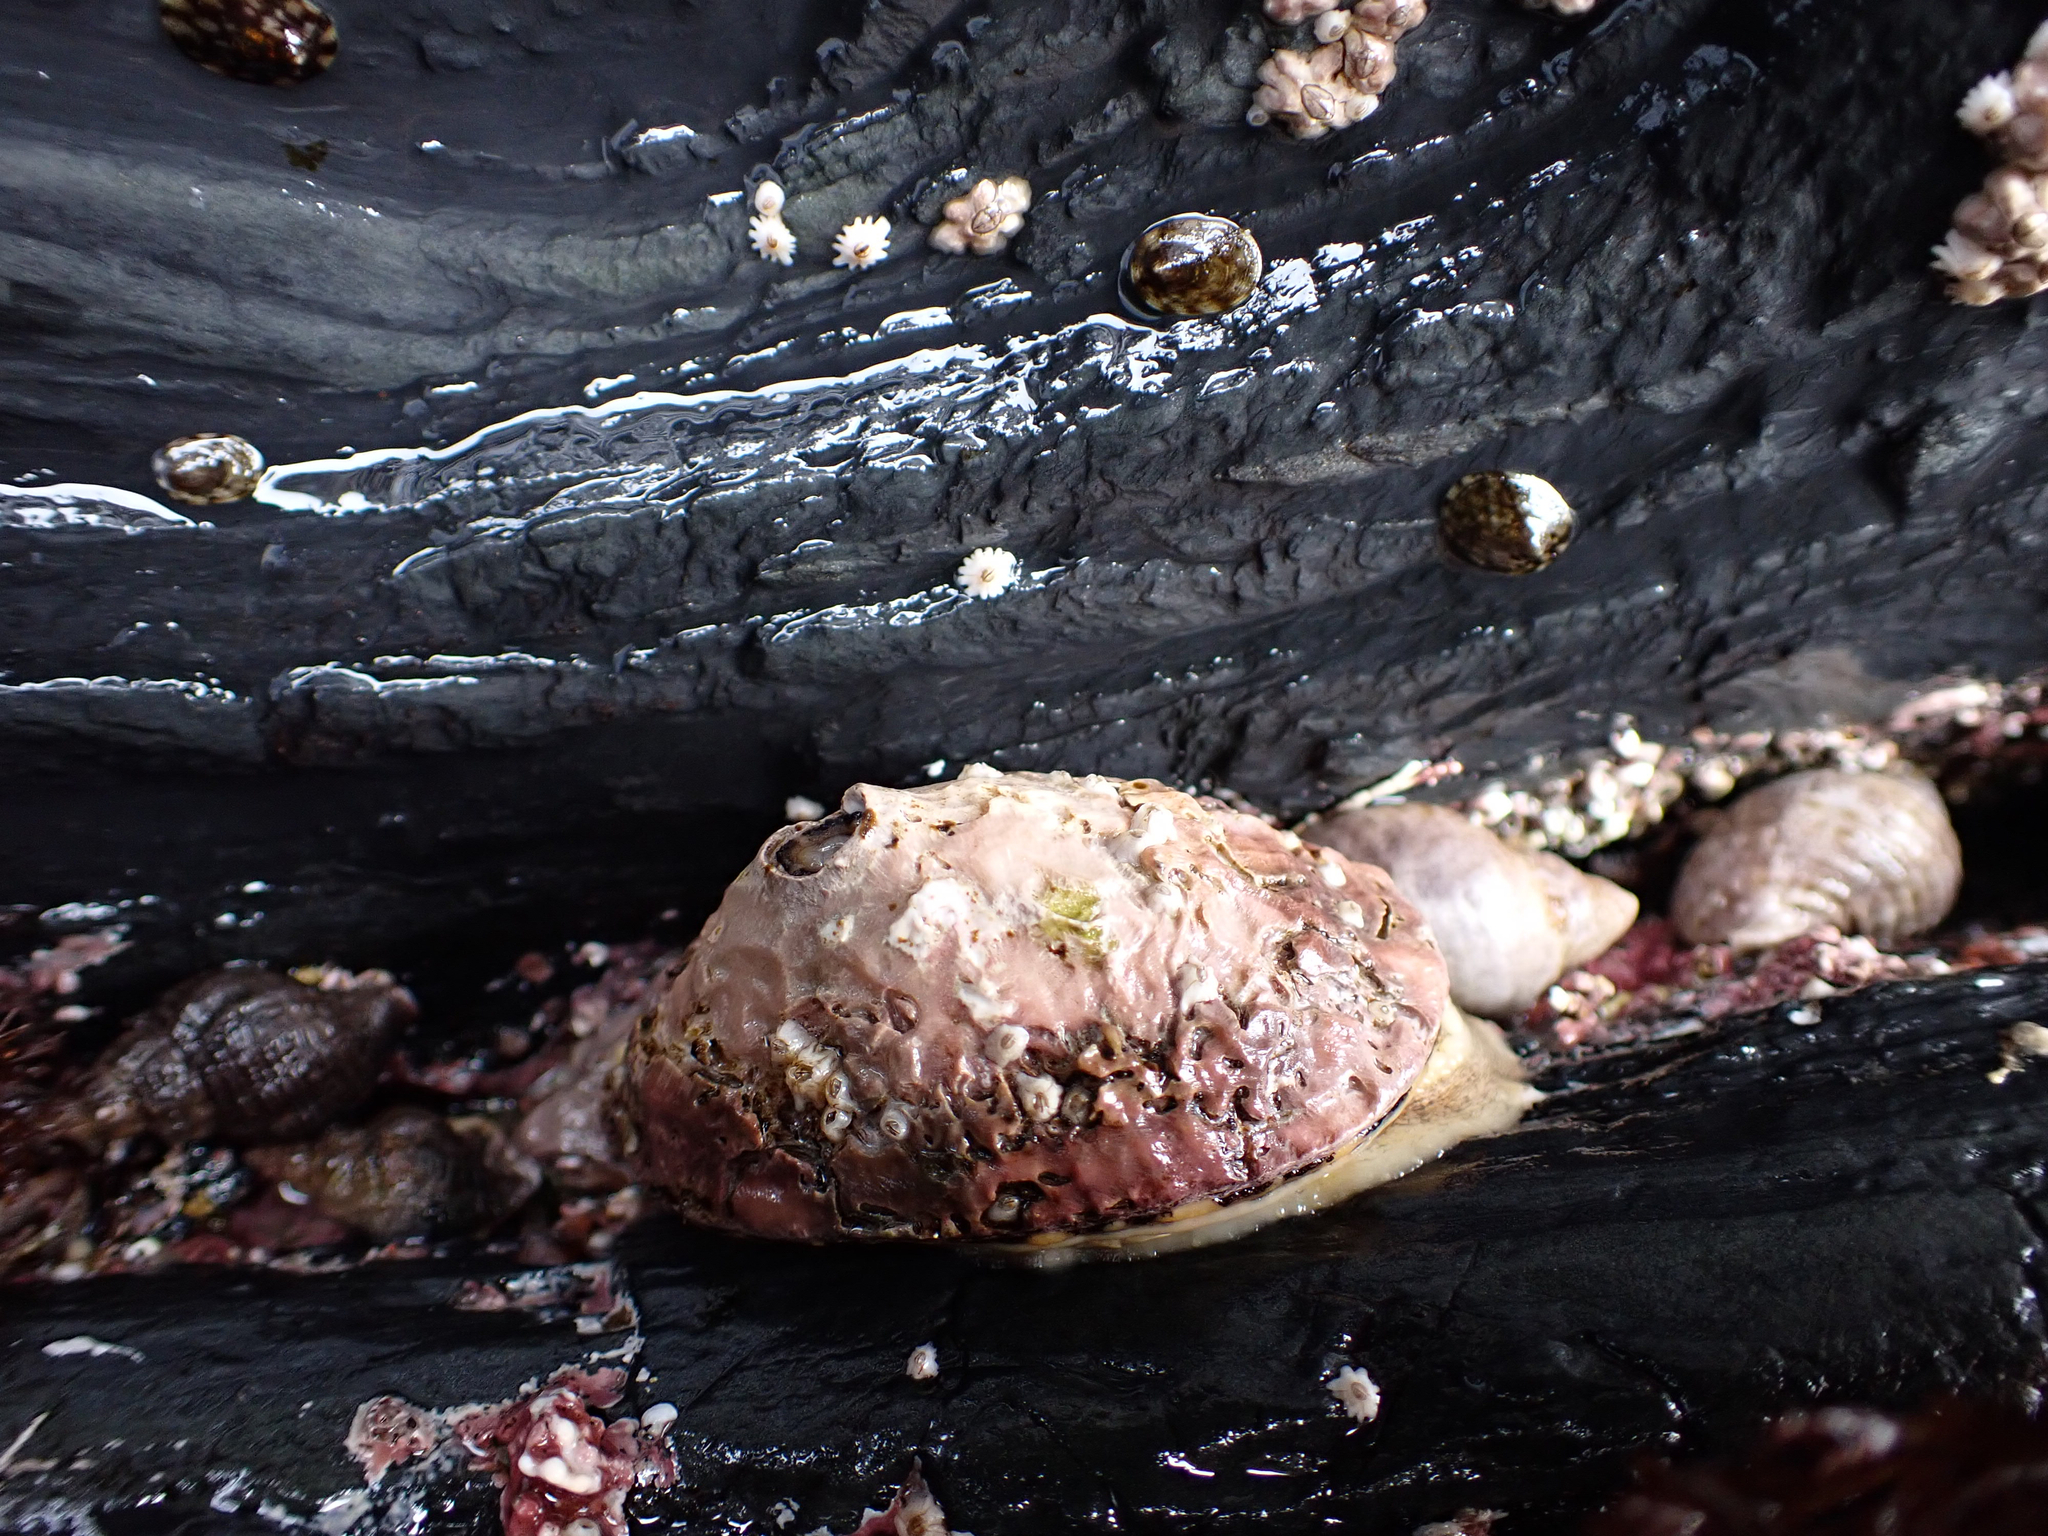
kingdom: Animalia
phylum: Mollusca
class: Gastropoda
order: Lepetellida
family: Fissurellidae
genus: Diodora
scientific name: Diodora aspera
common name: Rough keyhole limpet
